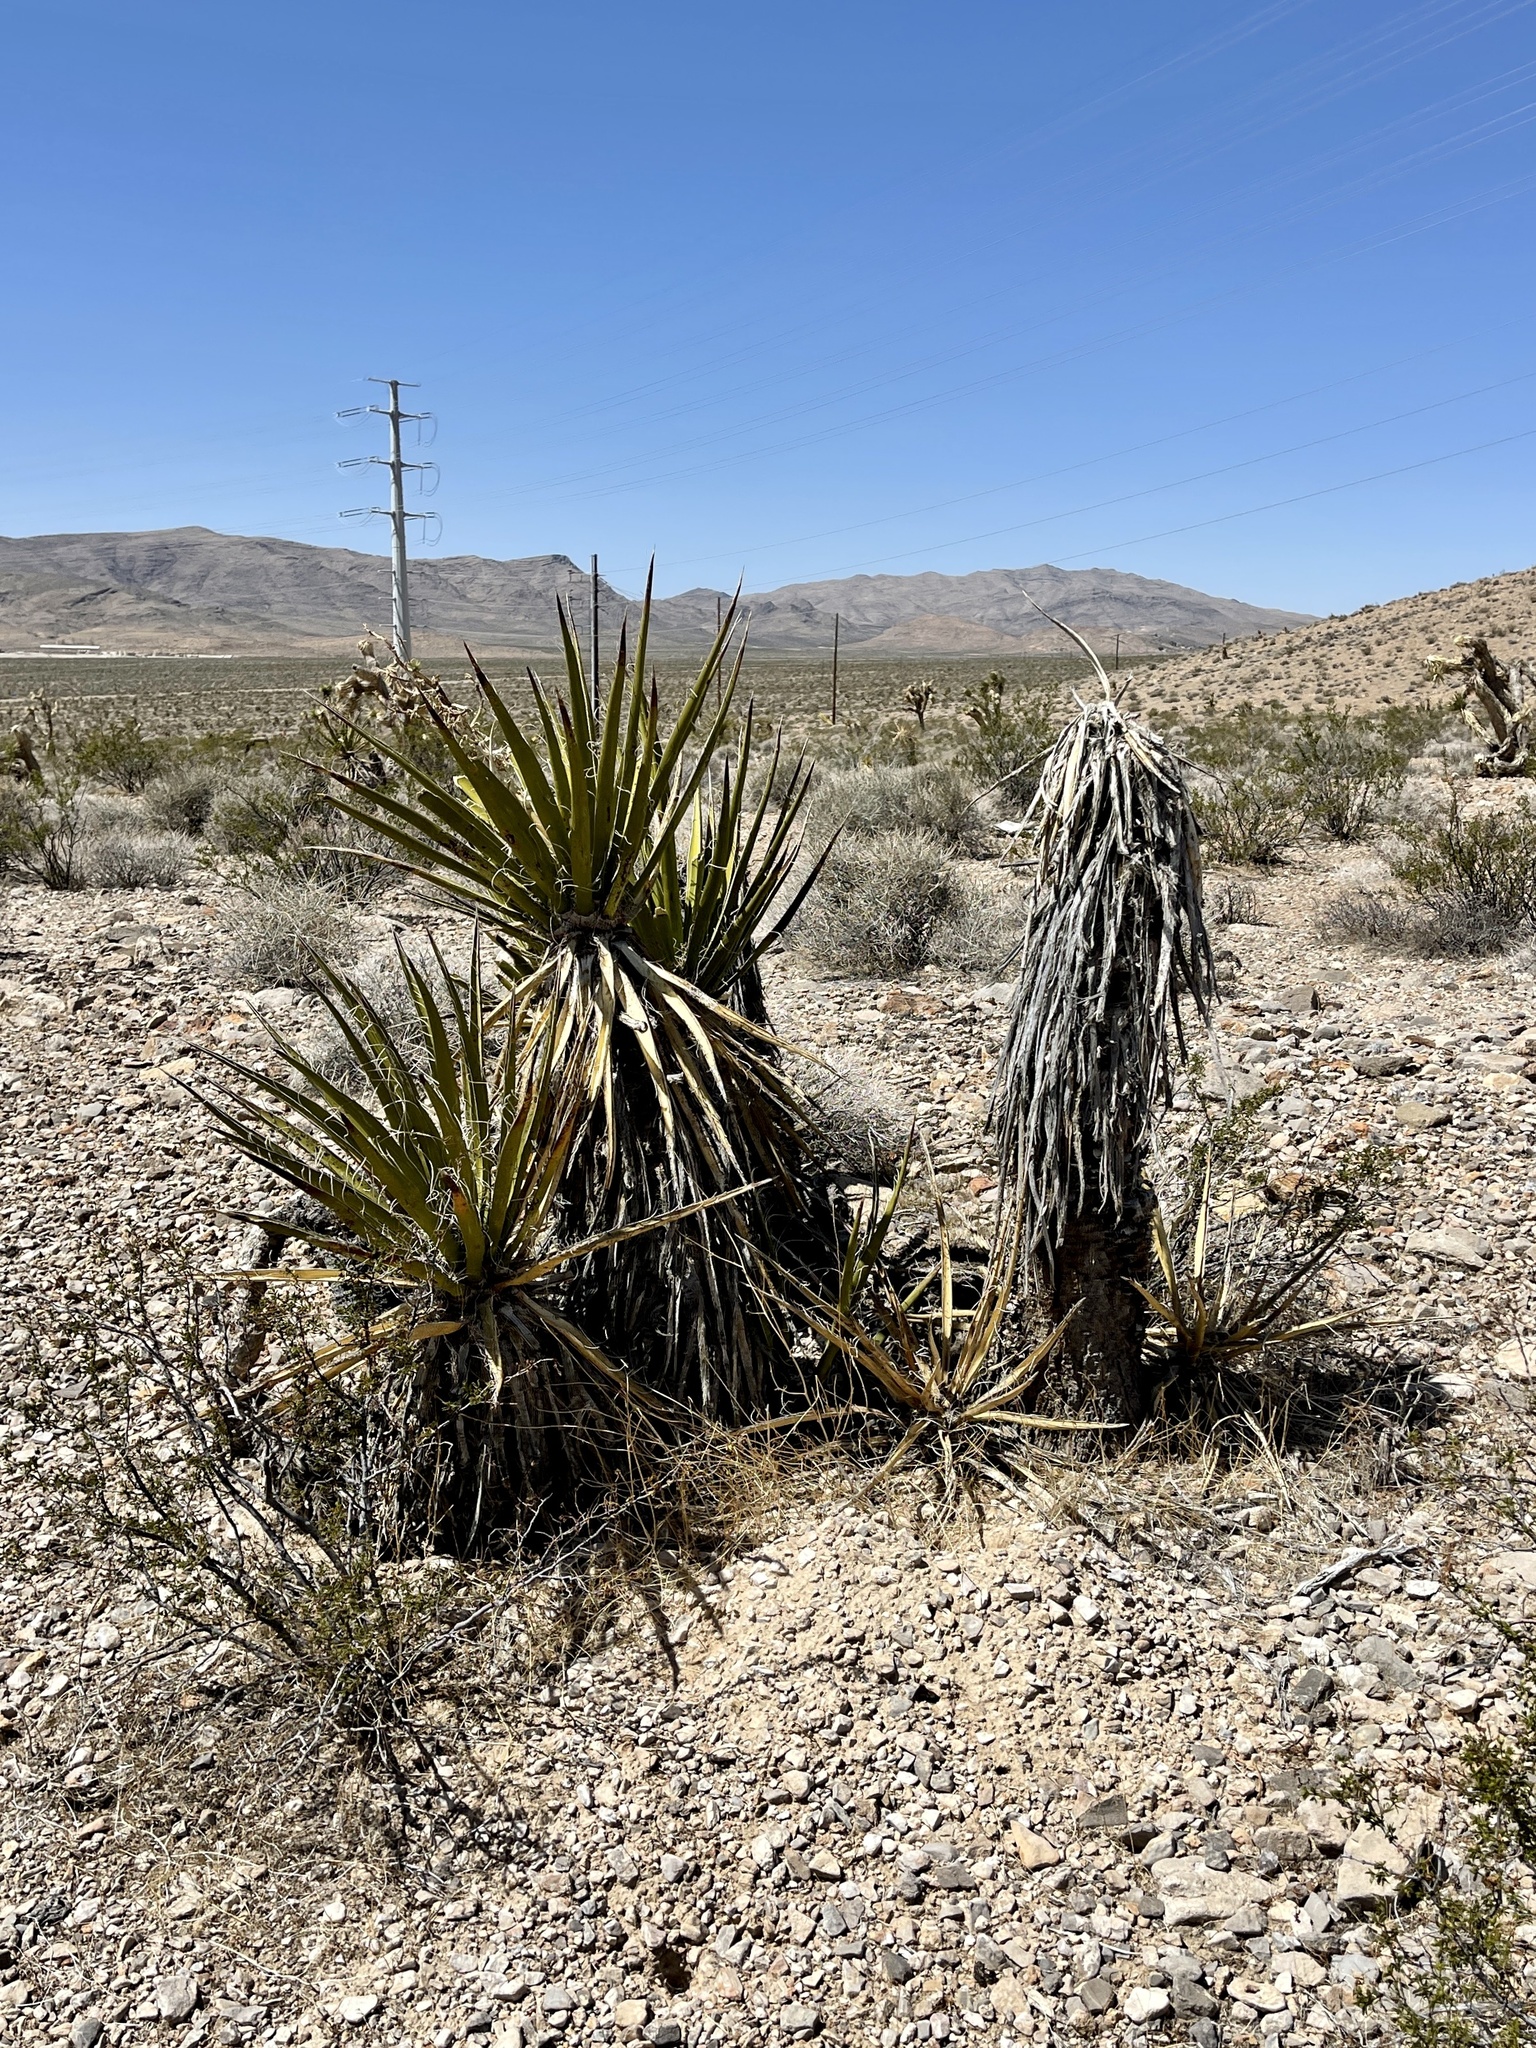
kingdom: Plantae
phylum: Tracheophyta
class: Liliopsida
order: Asparagales
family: Asparagaceae
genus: Yucca
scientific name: Yucca schidigera
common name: Mojave yucca
